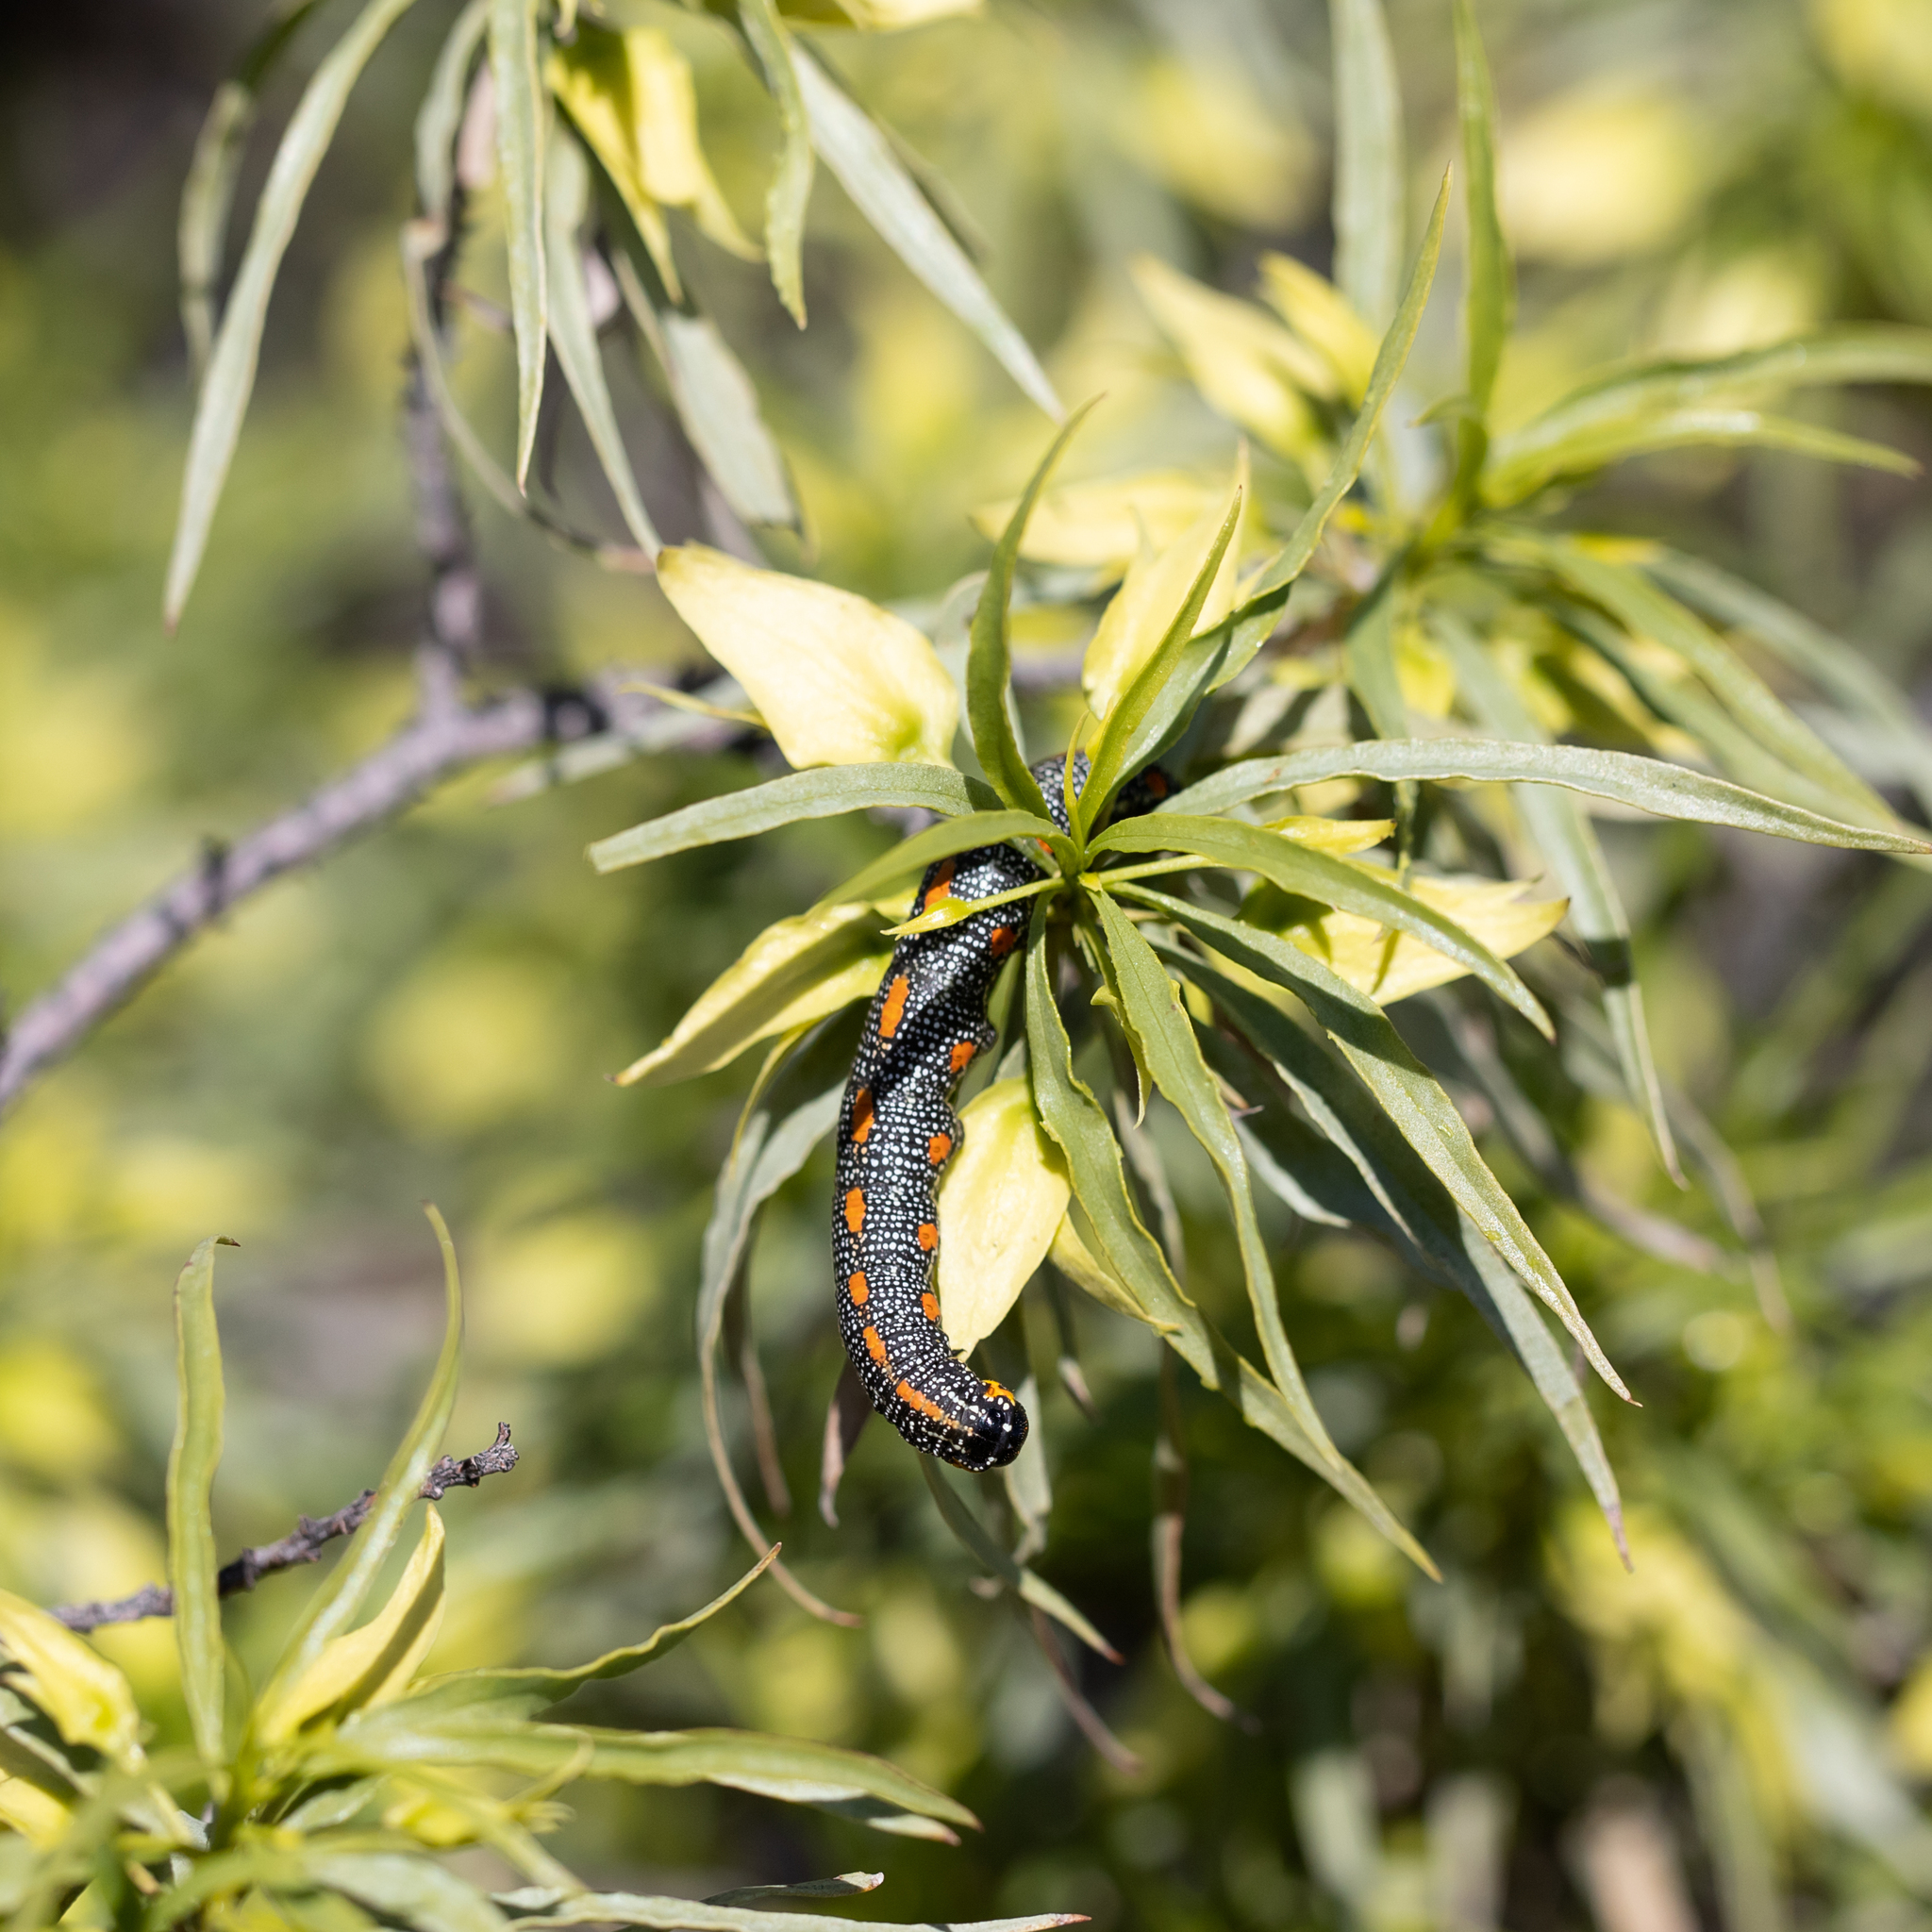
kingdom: Plantae
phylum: Tracheophyta
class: Magnoliopsida
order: Lamiales
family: Scrophulariaceae
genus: Eremophila
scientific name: Eremophila alatisepala
